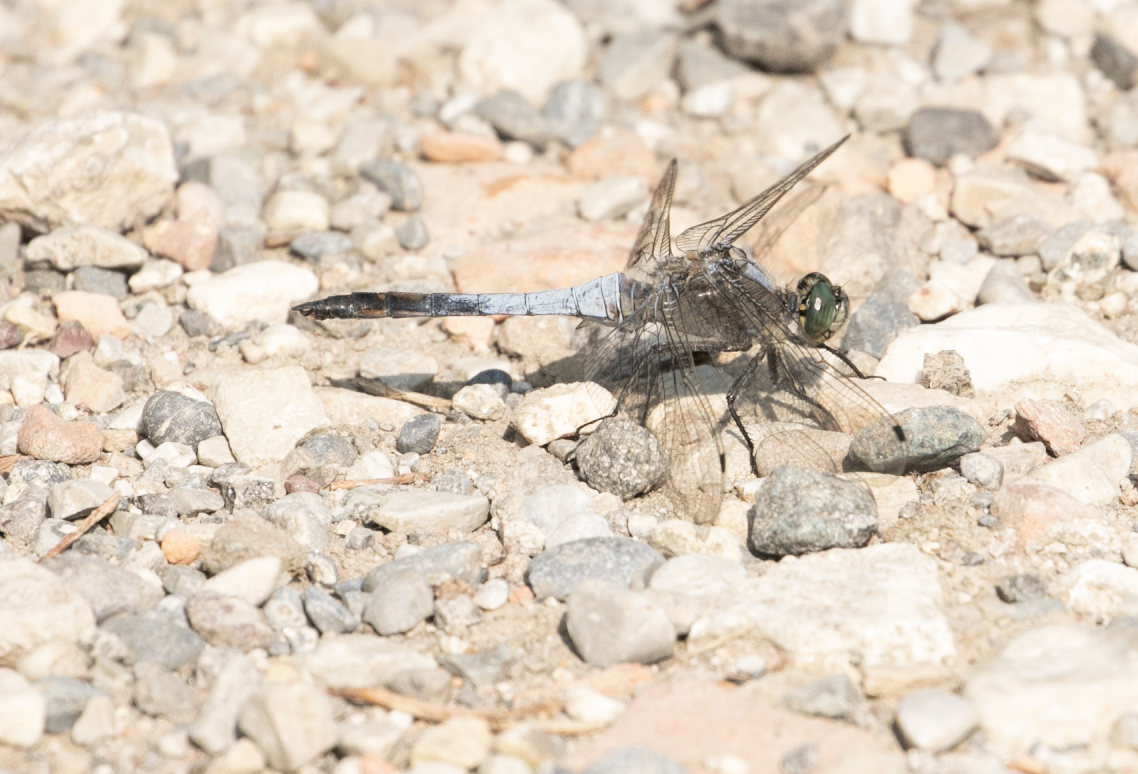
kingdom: Animalia
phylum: Arthropoda
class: Insecta
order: Odonata
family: Libellulidae
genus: Orthetrum
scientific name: Orthetrum cancellatum
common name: Black-tailed skimmer
